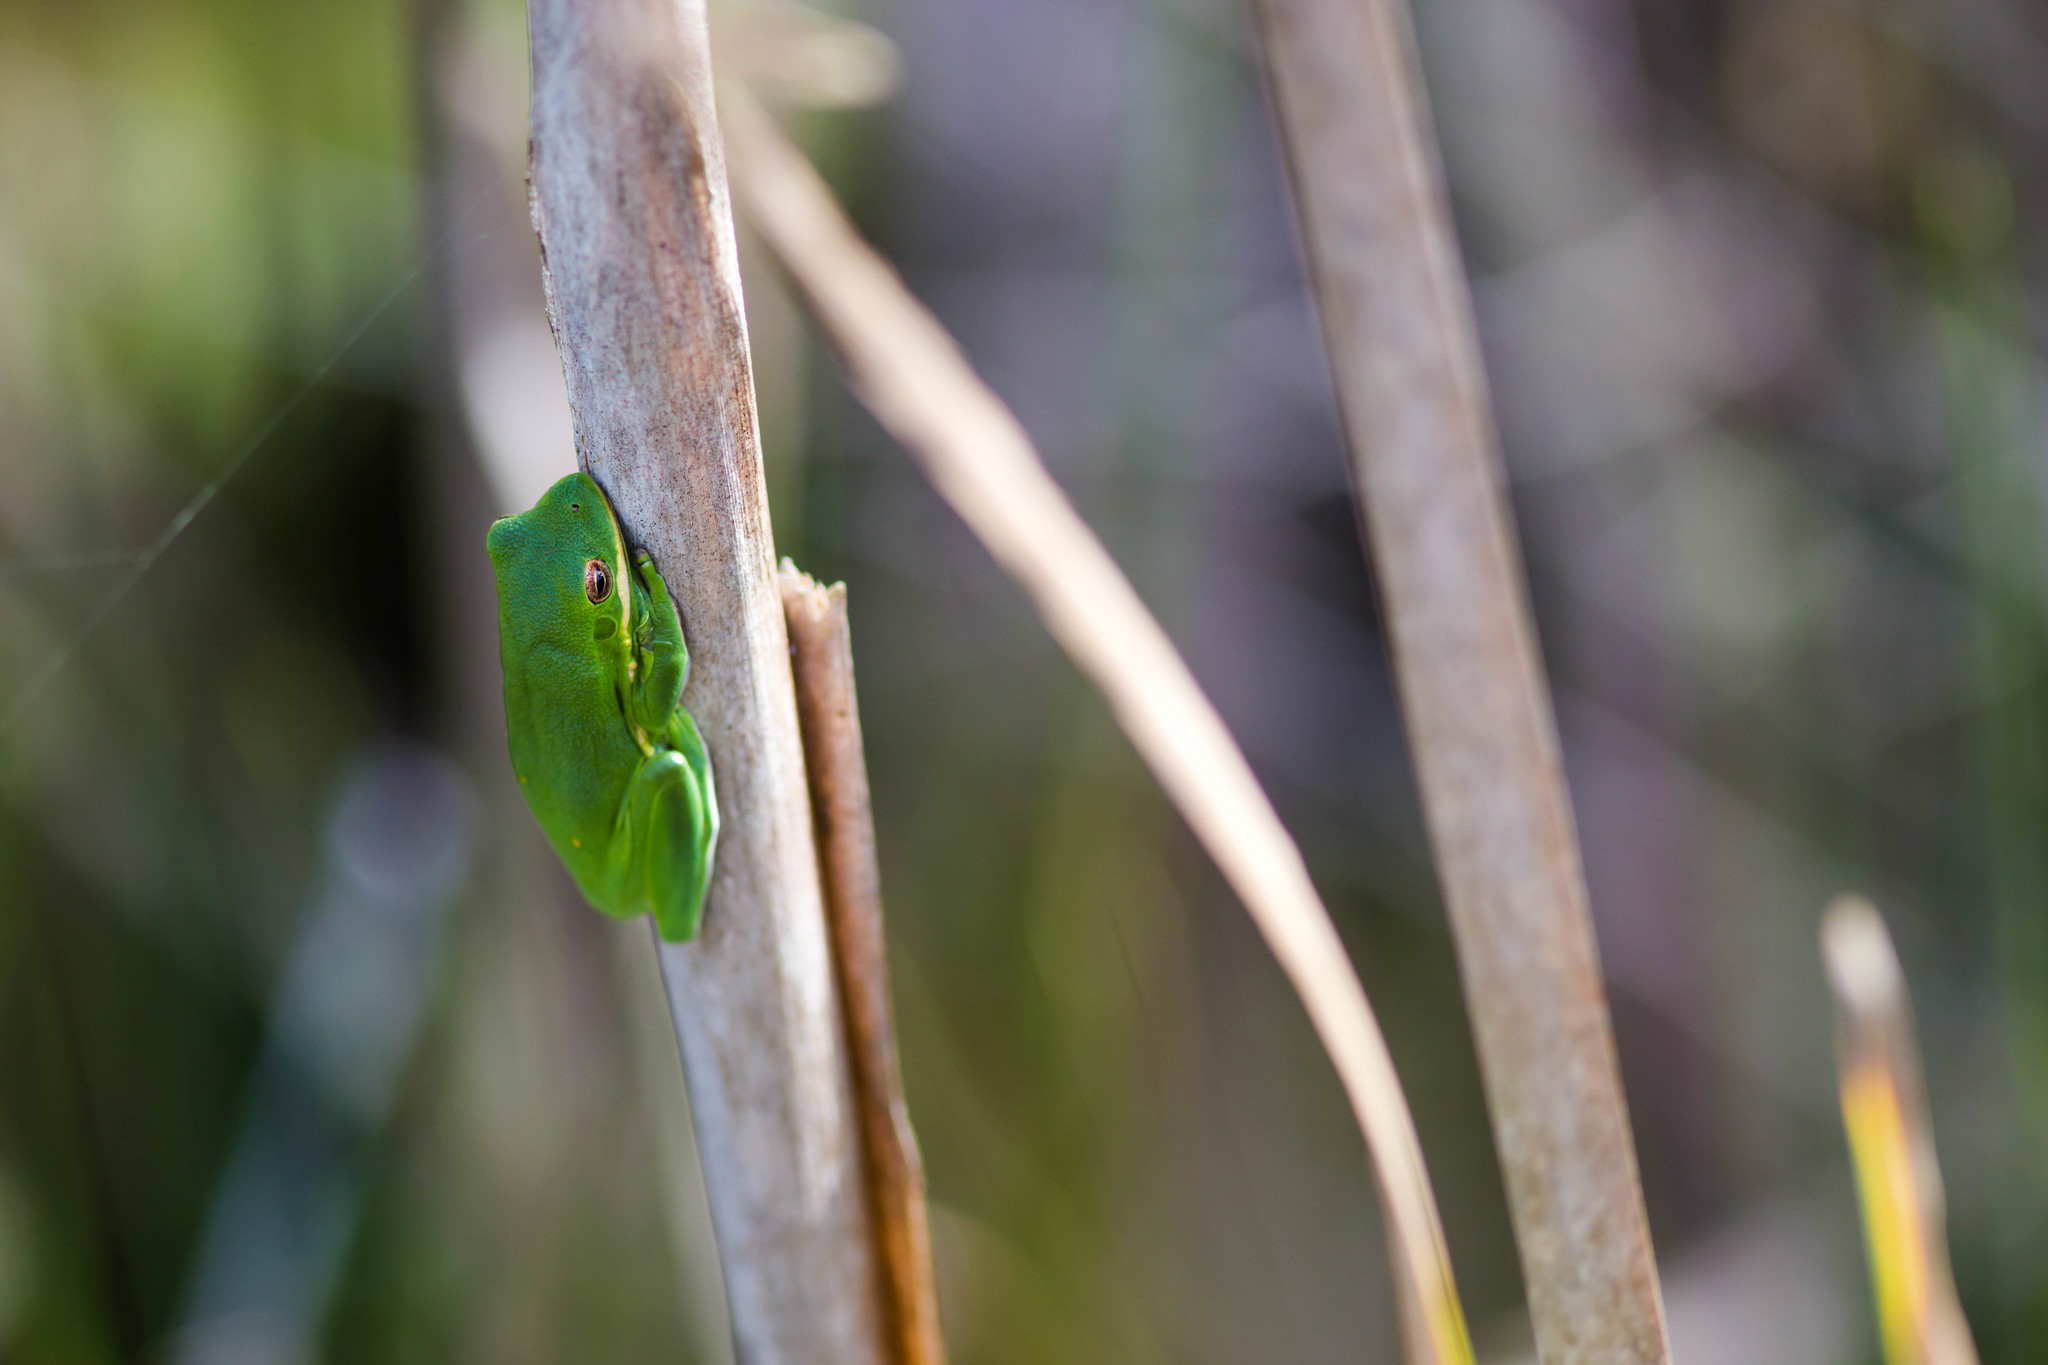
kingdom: Animalia
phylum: Chordata
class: Amphibia
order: Anura
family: Hylidae
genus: Dryophytes
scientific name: Dryophytes cinereus
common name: Green treefrog
